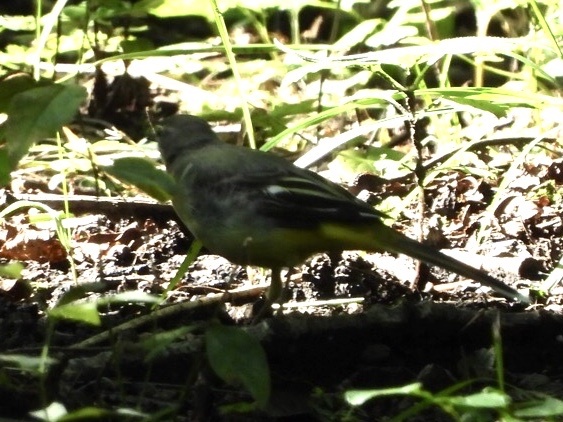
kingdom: Animalia
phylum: Chordata
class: Aves
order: Passeriformes
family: Motacillidae
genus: Motacilla
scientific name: Motacilla cinerea
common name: Grey wagtail
